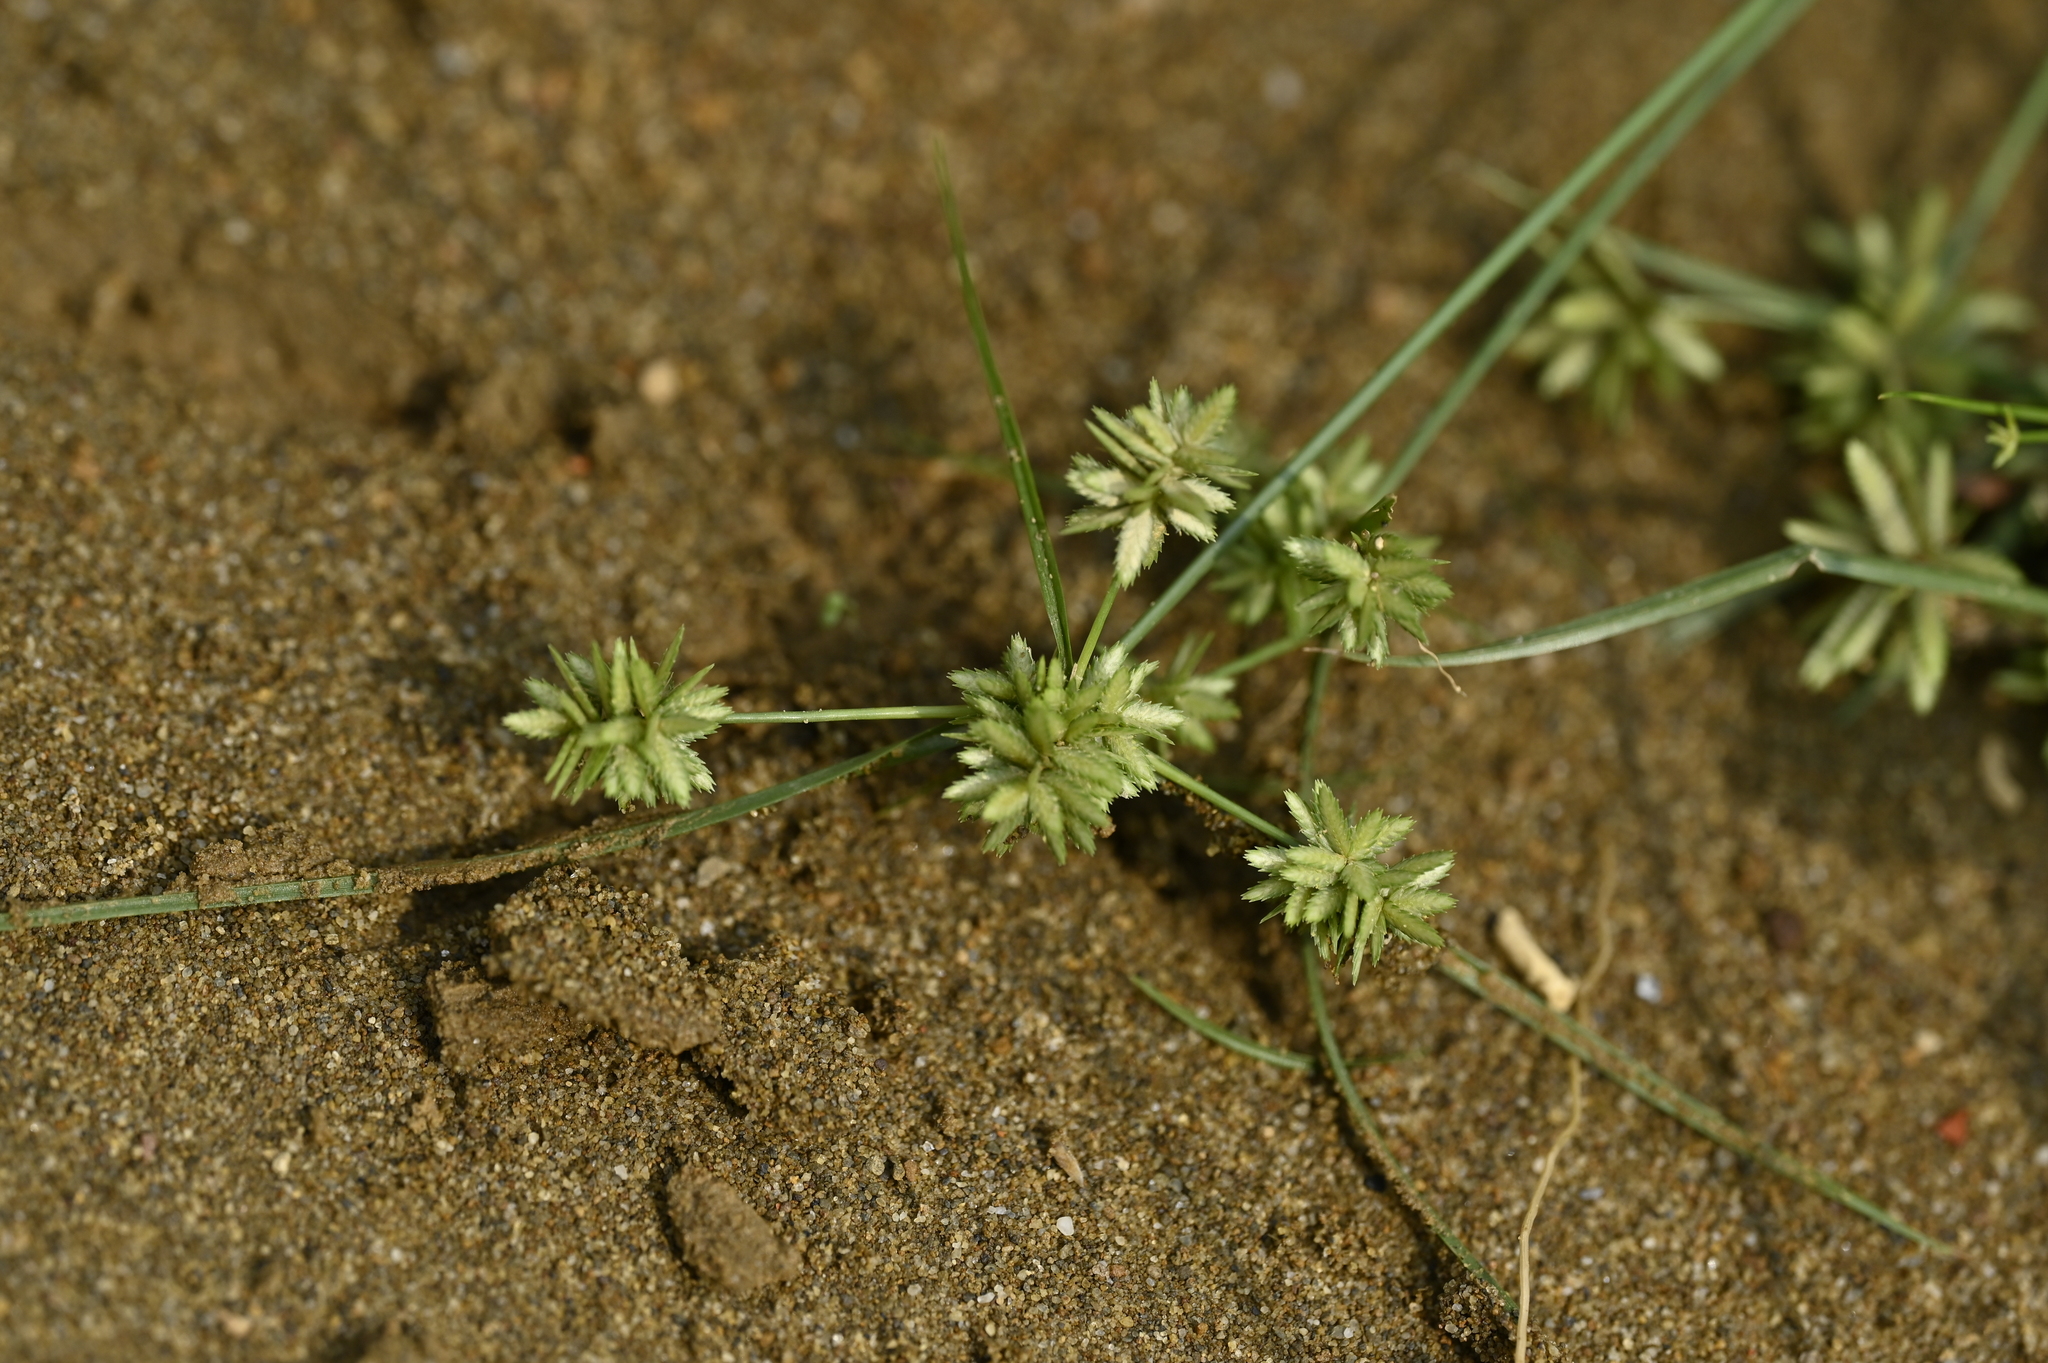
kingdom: Plantae
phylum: Tracheophyta
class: Liliopsida
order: Poales
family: Cyperaceae
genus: Cyperus
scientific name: Cyperus pumilus
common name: Low flatsedge
